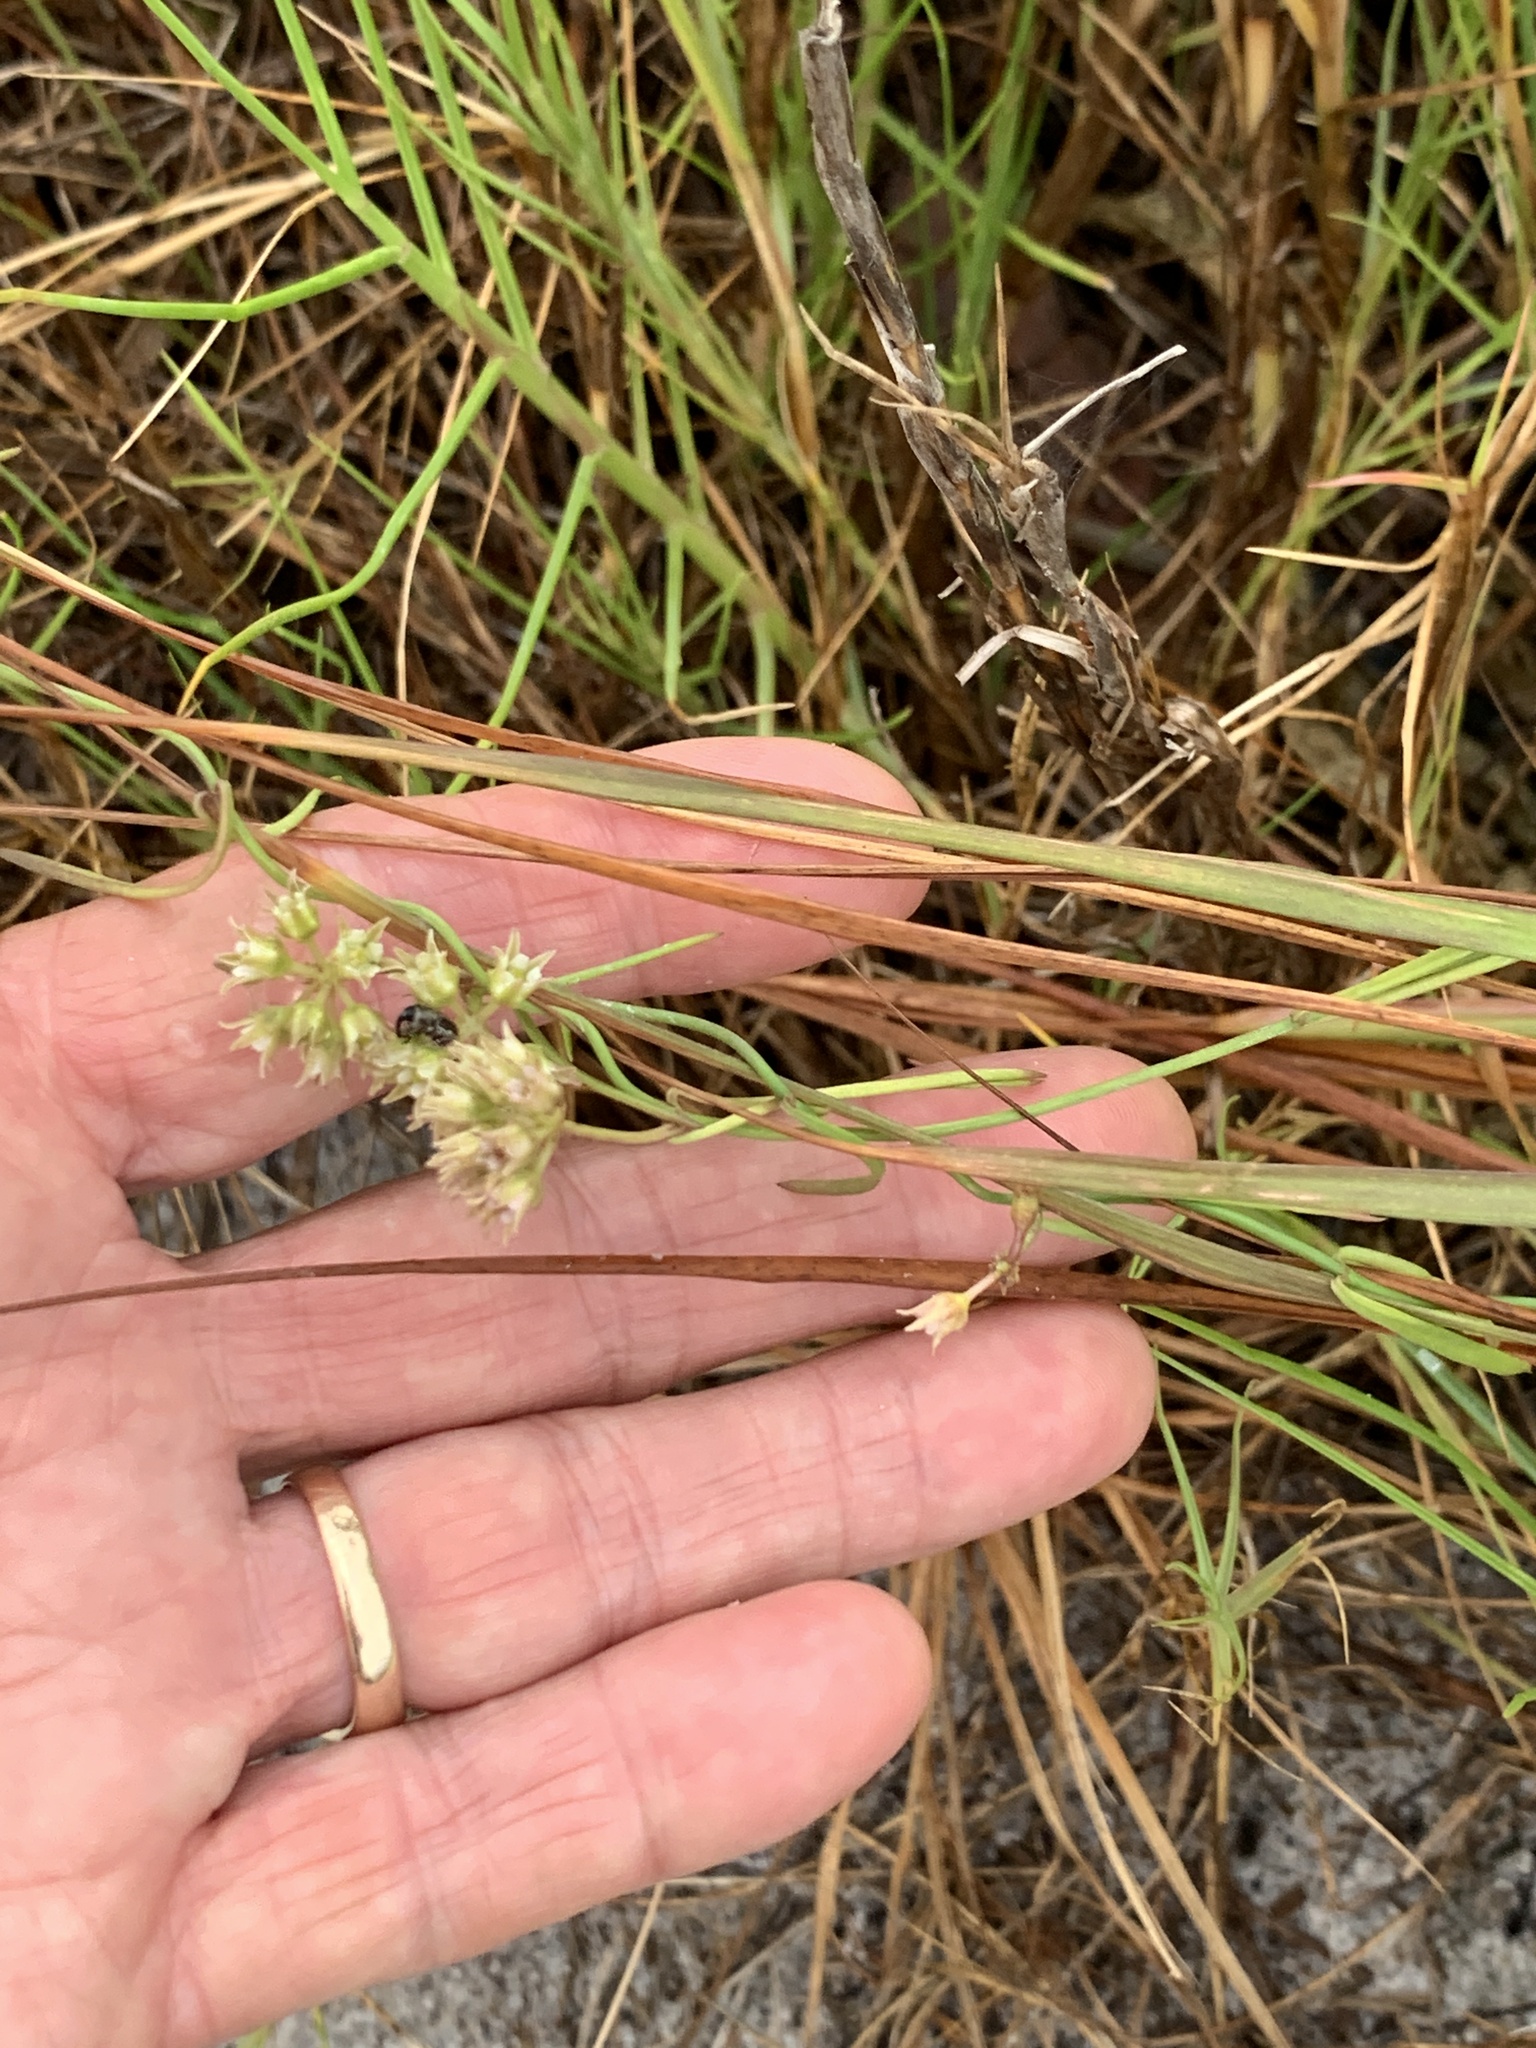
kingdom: Plantae
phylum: Tracheophyta
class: Magnoliopsida
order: Gentianales
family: Apocynaceae
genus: Pattalias
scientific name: Pattalias
